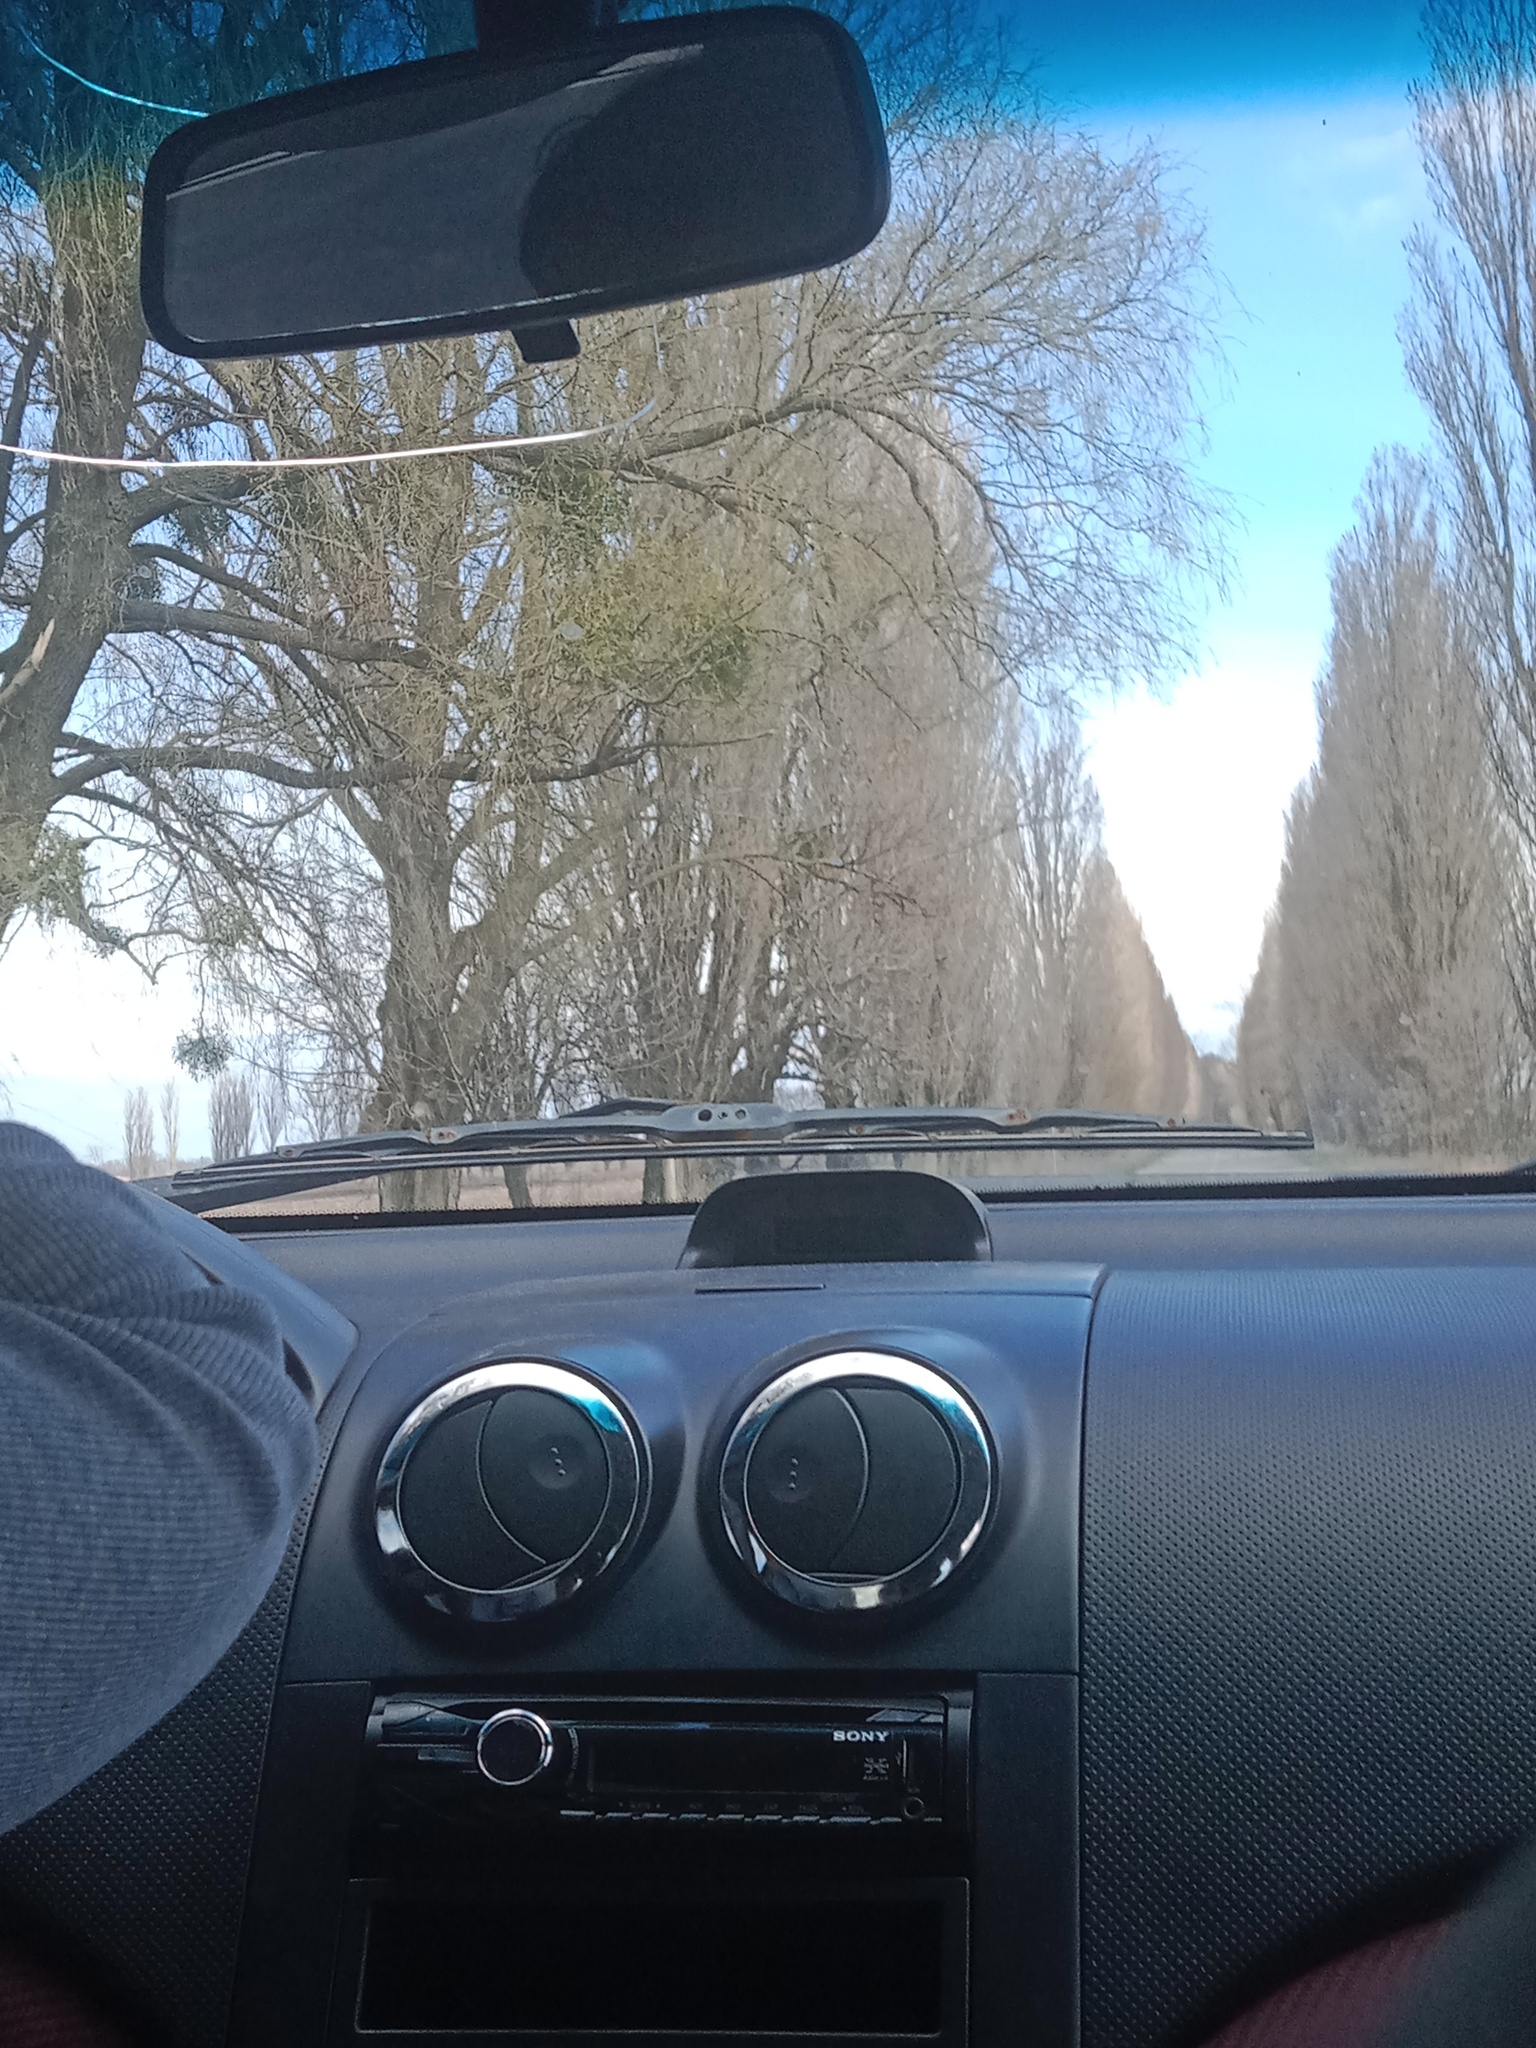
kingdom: Plantae
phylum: Tracheophyta
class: Magnoliopsida
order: Santalales
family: Viscaceae
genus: Viscum
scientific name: Viscum album
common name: Mistletoe
